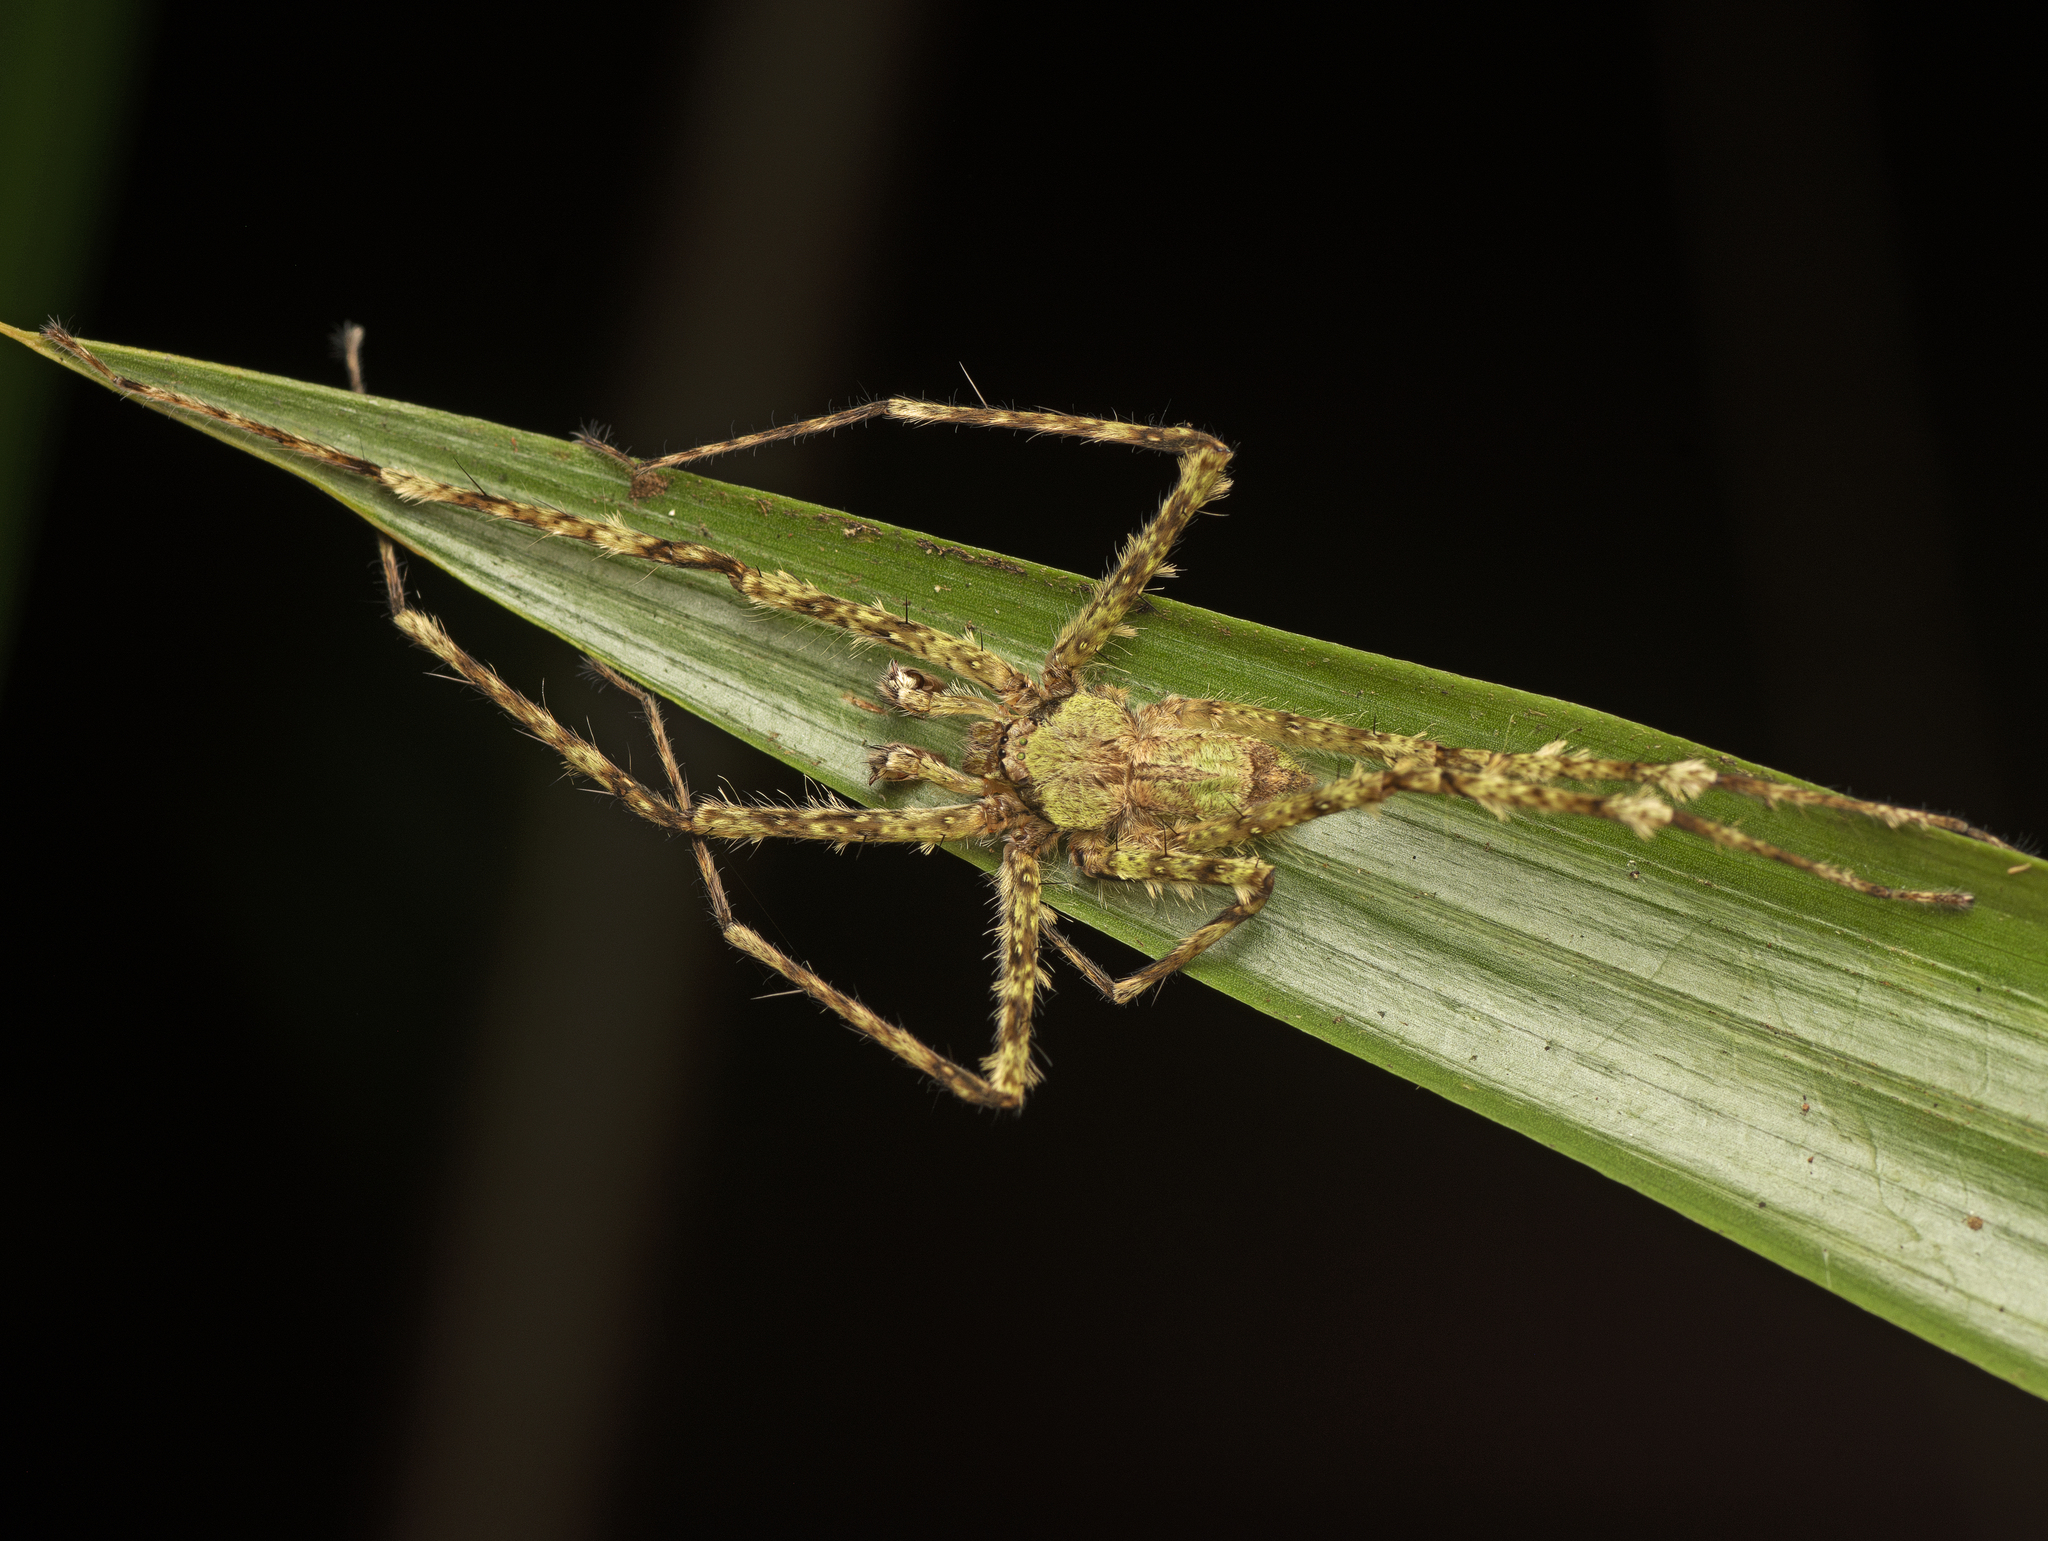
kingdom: Animalia
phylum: Arthropoda
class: Arachnida
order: Araneae
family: Sparassidae
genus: Pandercetes
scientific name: Pandercetes gracilis
